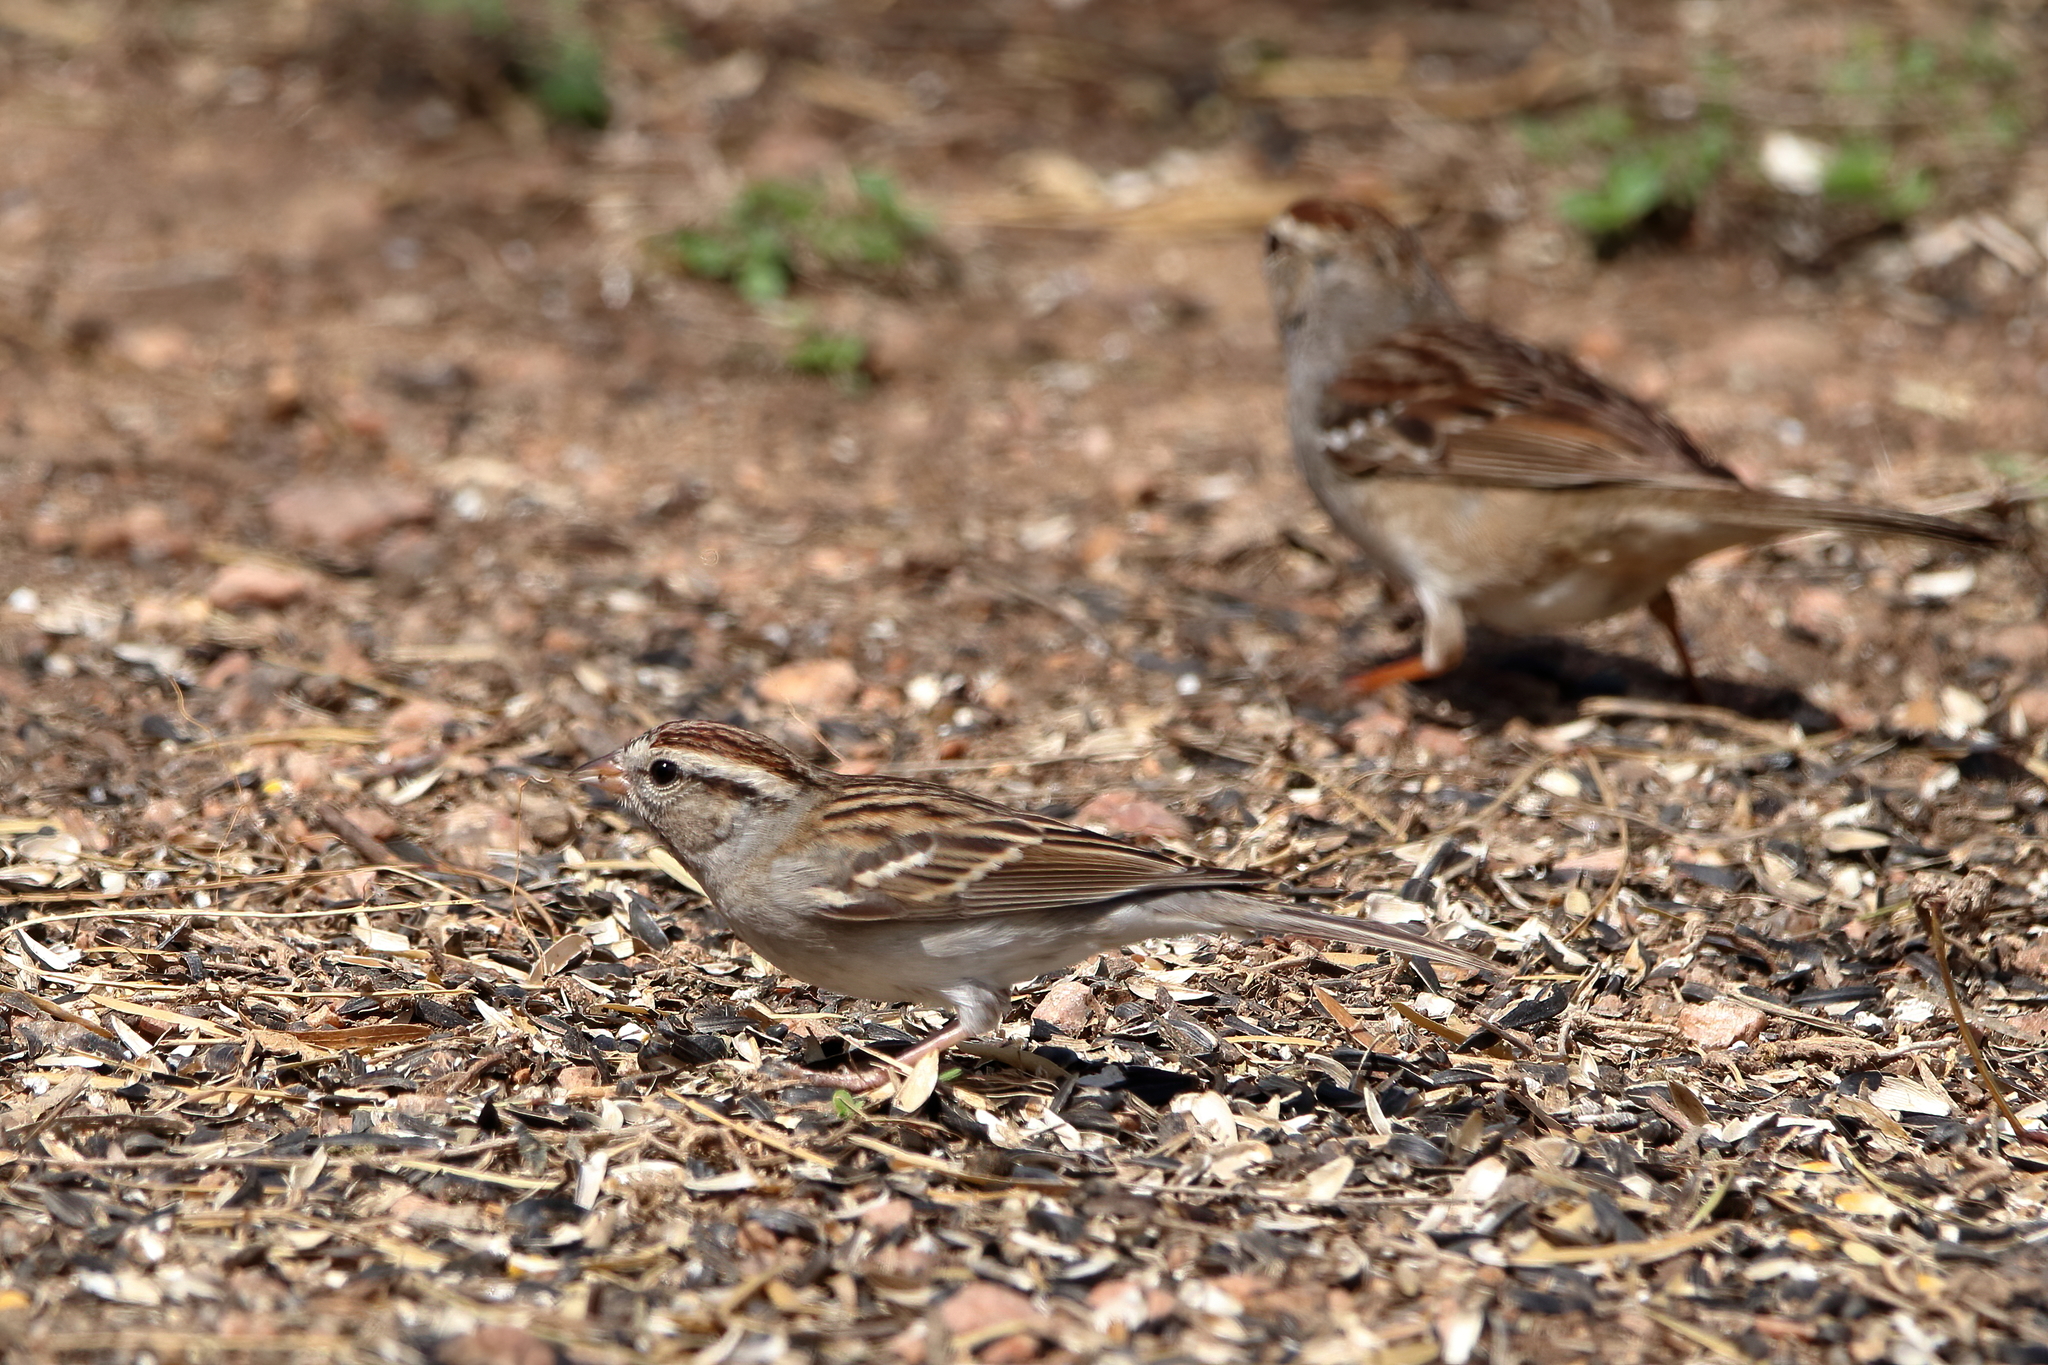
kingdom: Animalia
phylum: Chordata
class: Aves
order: Passeriformes
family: Passerellidae
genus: Spizella
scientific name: Spizella passerina
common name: Chipping sparrow
